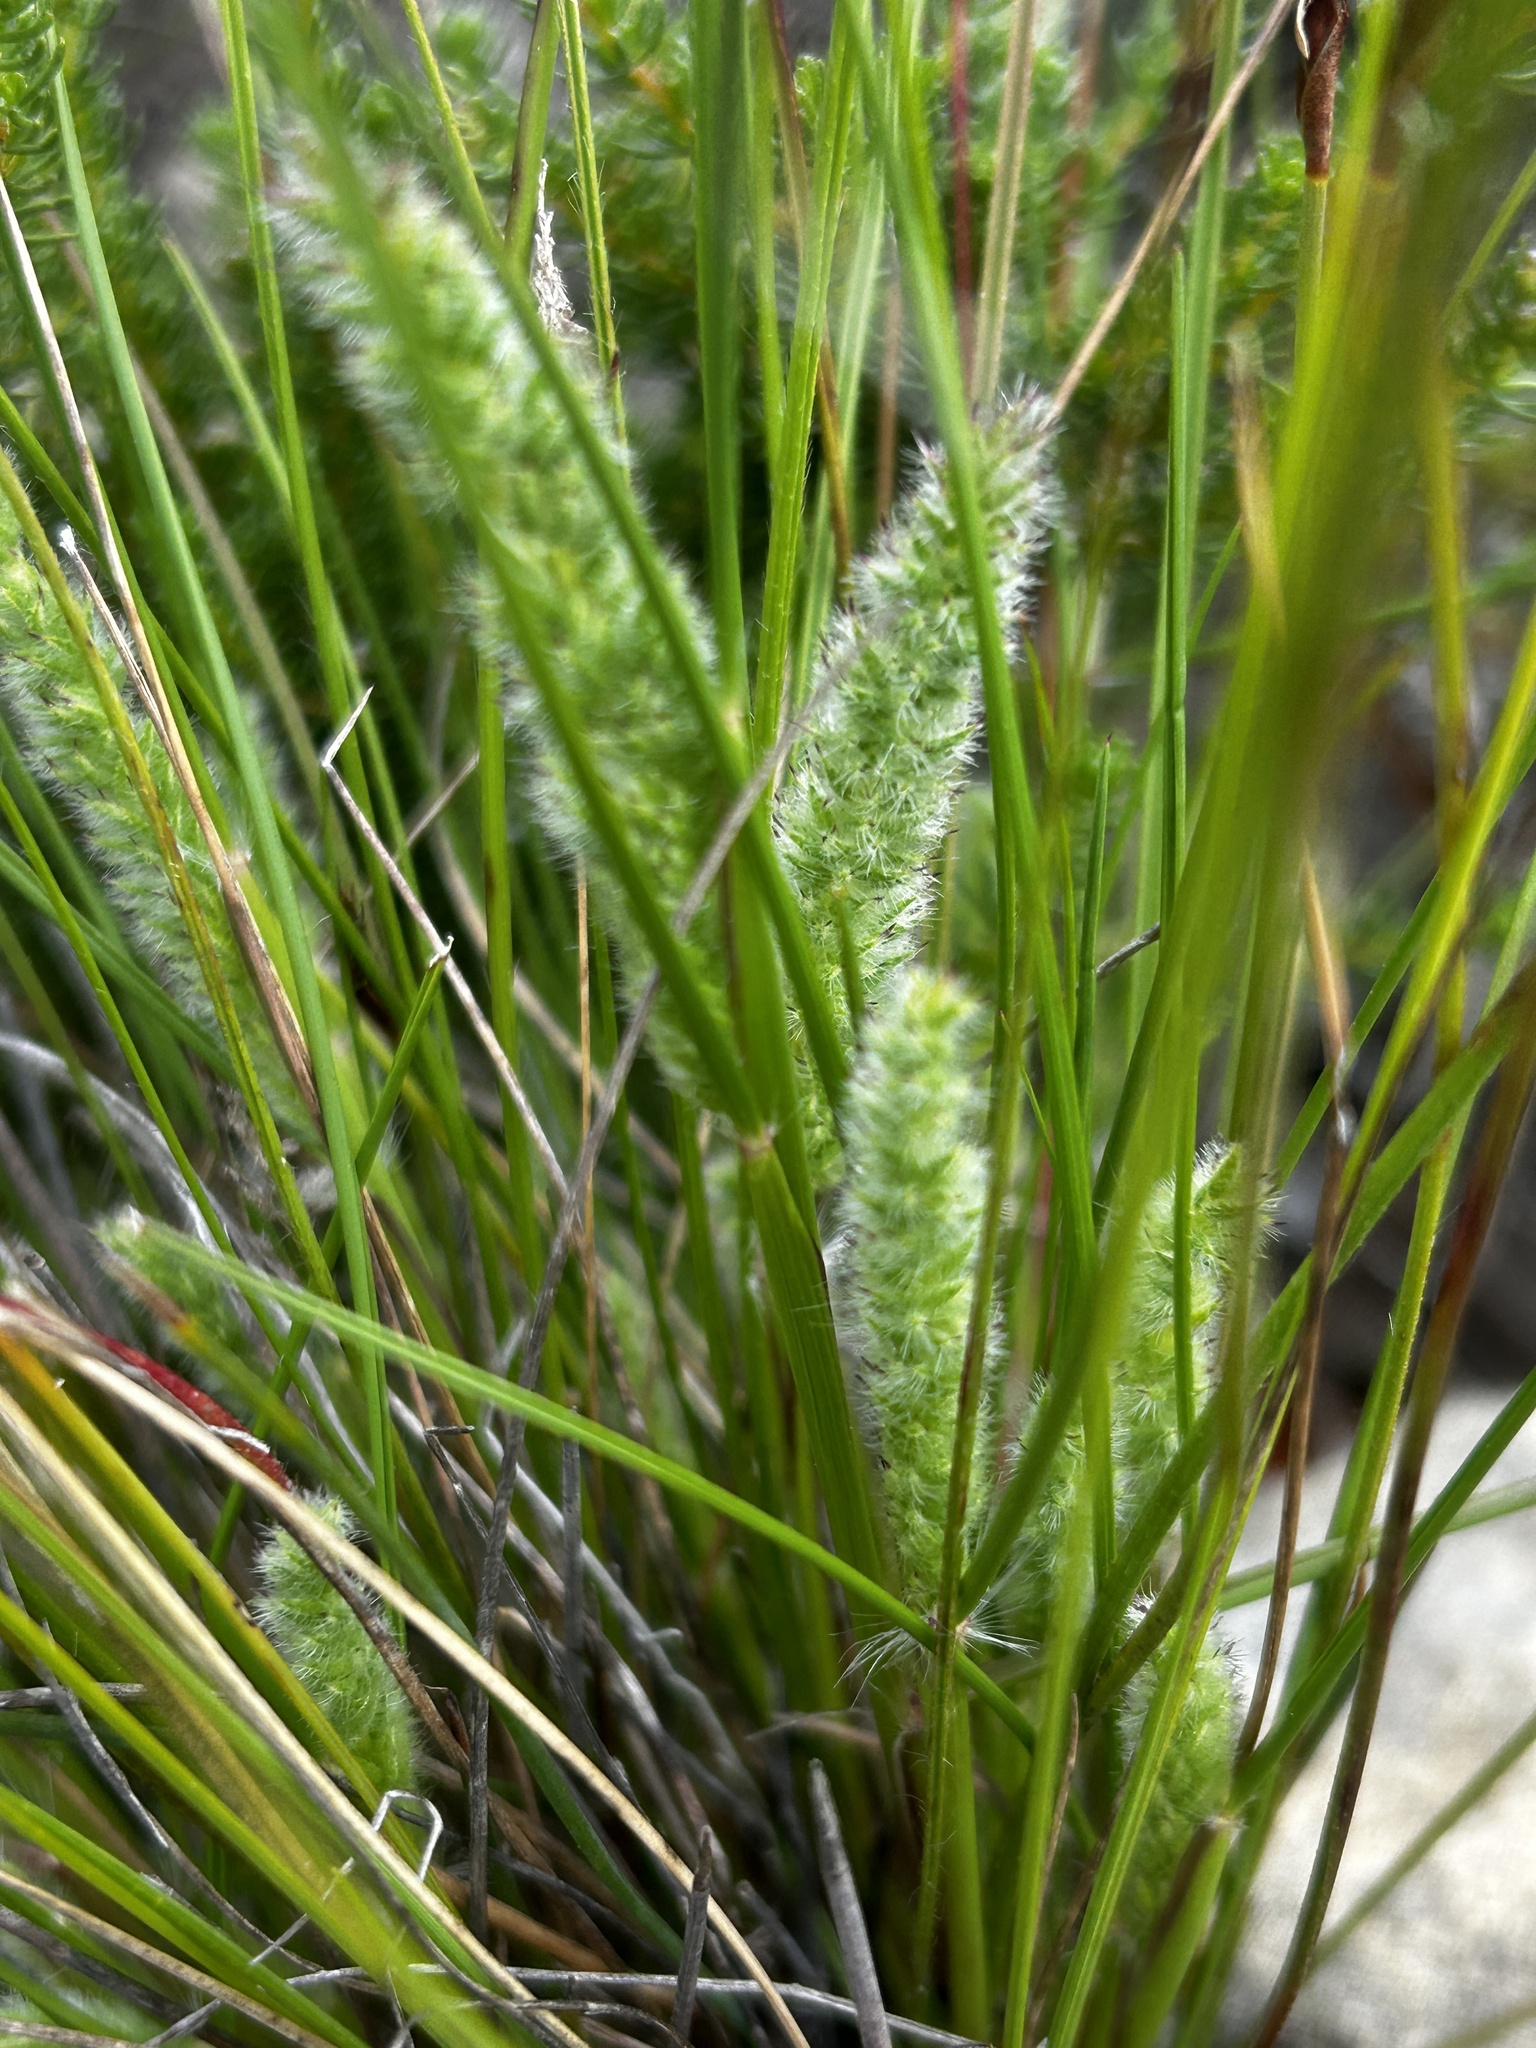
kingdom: Plantae
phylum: Tracheophyta
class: Liliopsida
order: Poales
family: Poaceae
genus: Rostraria
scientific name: Rostraria cristata
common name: Mediterranean hair-grass
